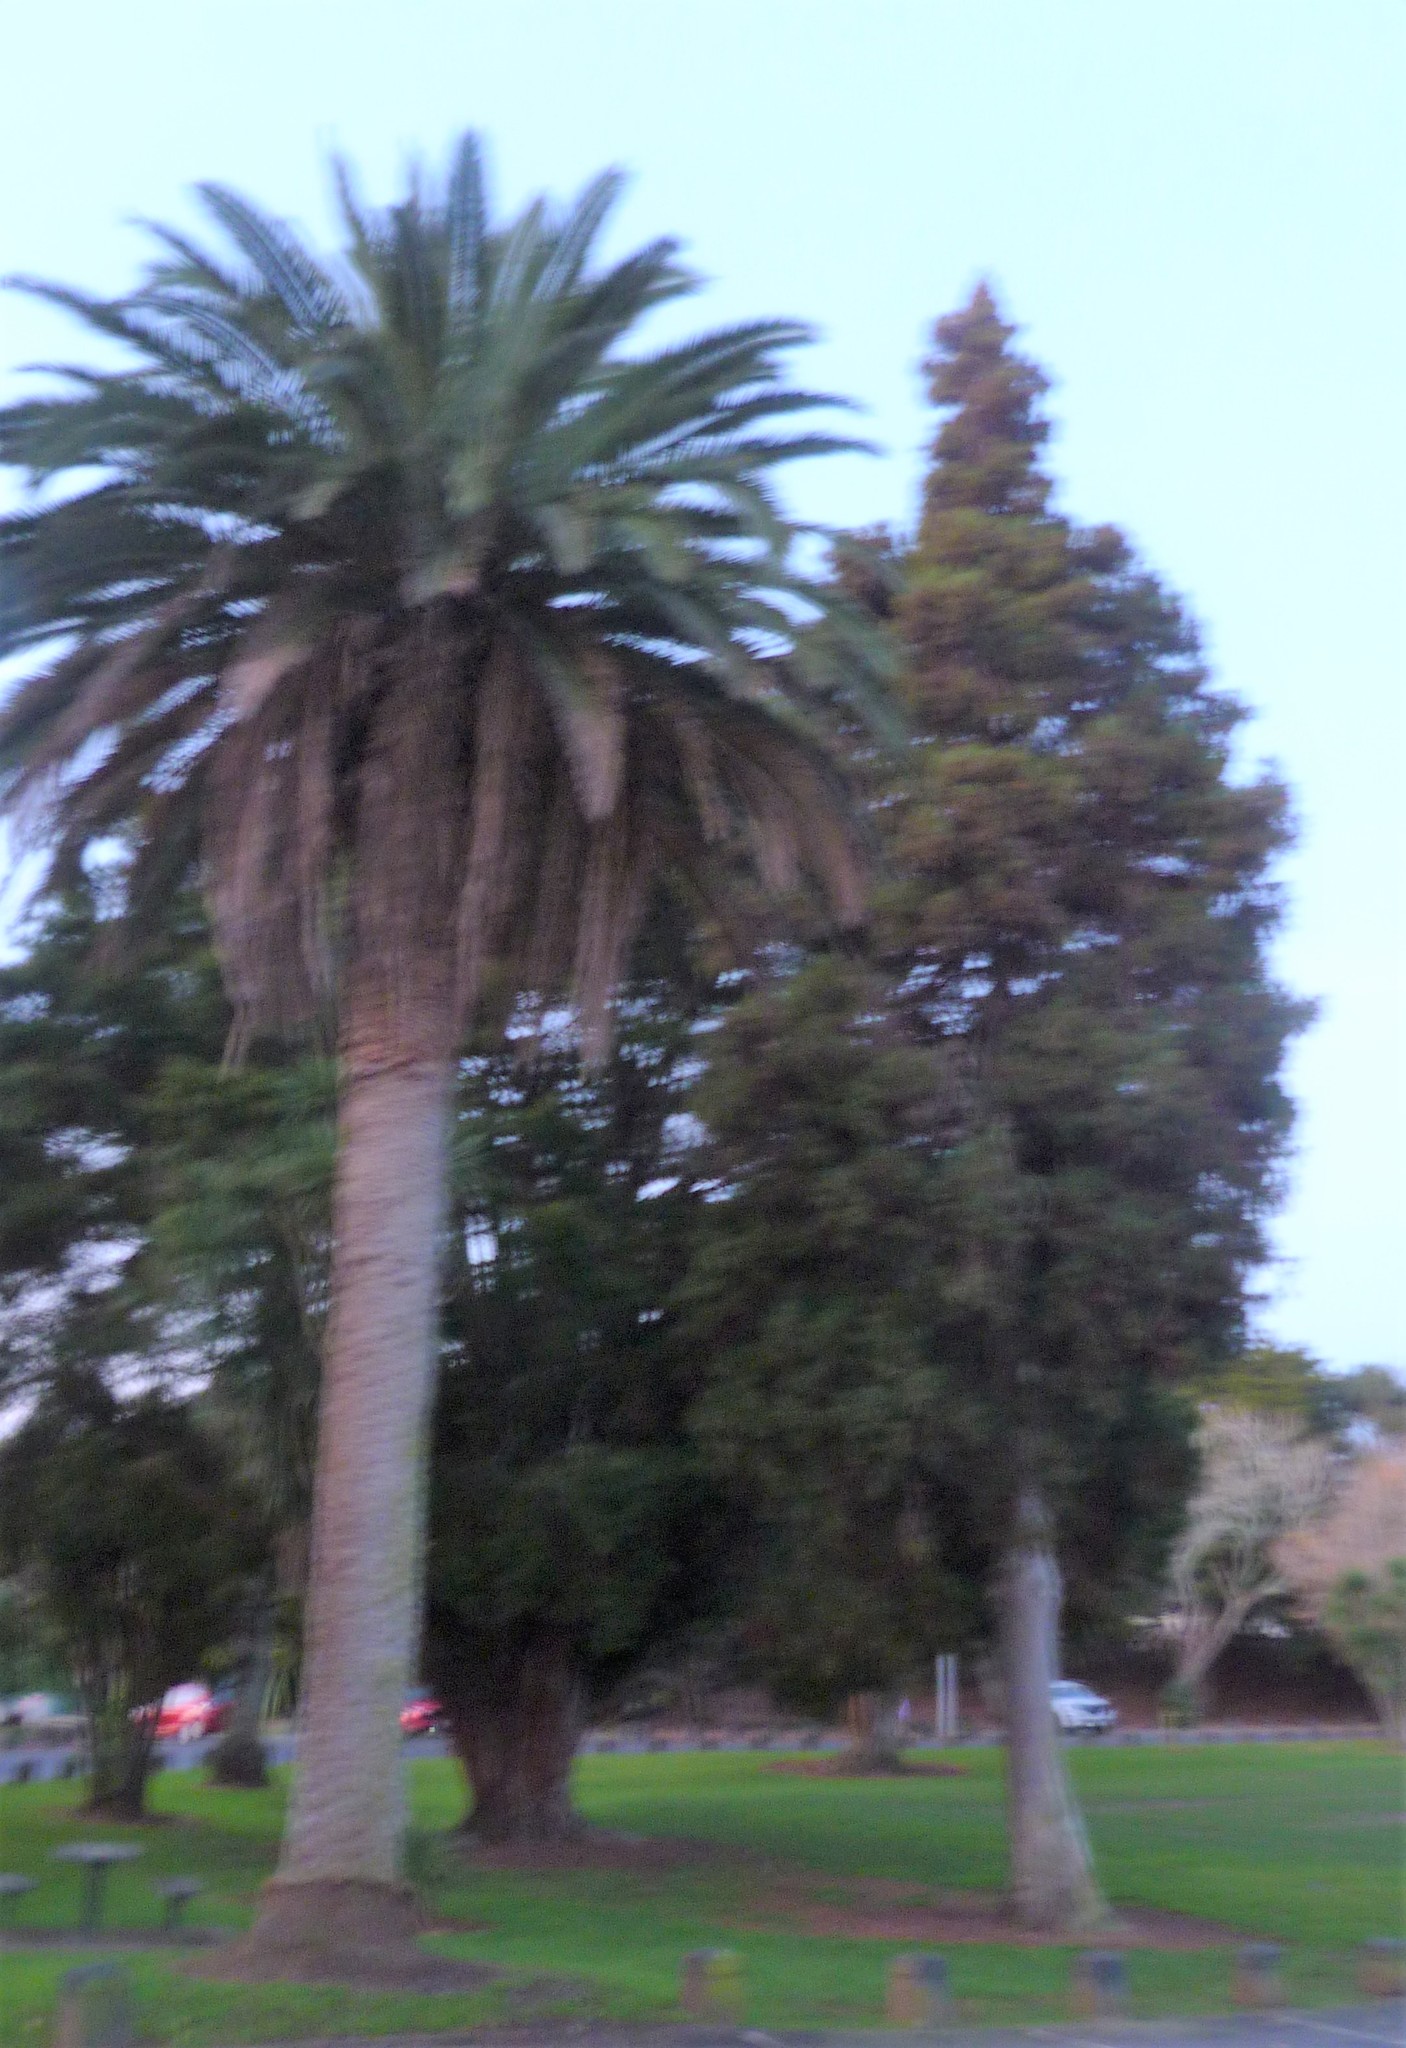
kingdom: Plantae
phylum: Tracheophyta
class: Pinopsida
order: Pinales
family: Podocarpaceae
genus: Dacrycarpus
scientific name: Dacrycarpus dacrydioides
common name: White pine
